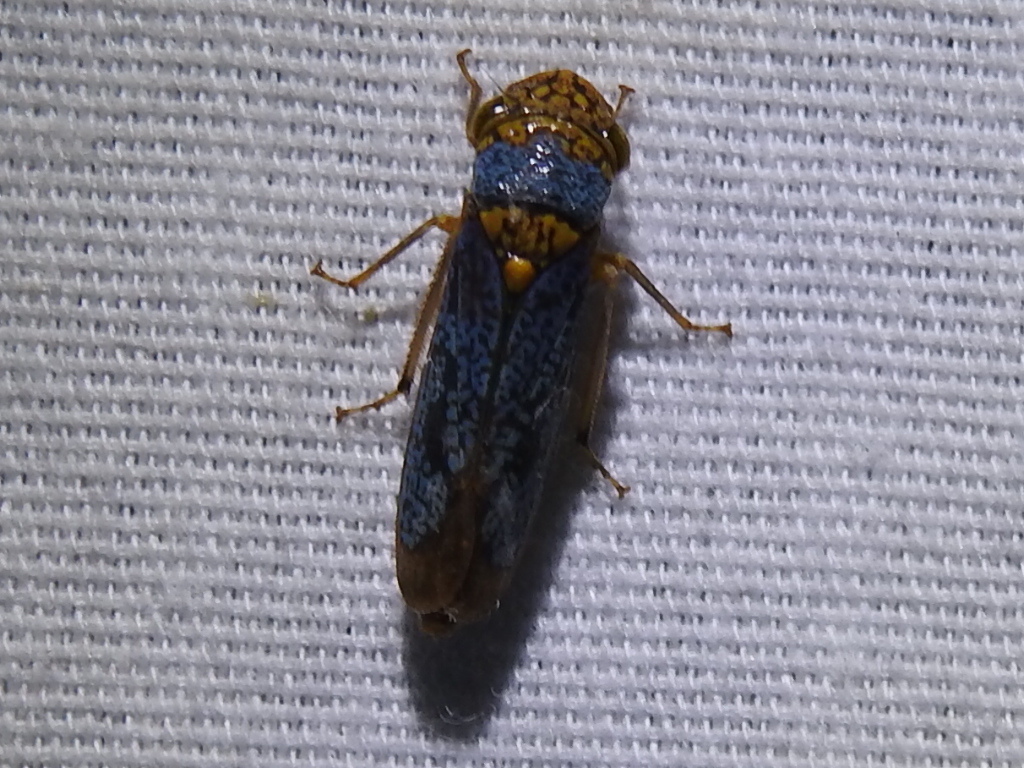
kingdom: Animalia
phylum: Arthropoda
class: Insecta
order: Hemiptera
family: Cicadellidae
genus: Oncometopia
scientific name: Oncometopia orbona
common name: Broad-headed sharpshooter
